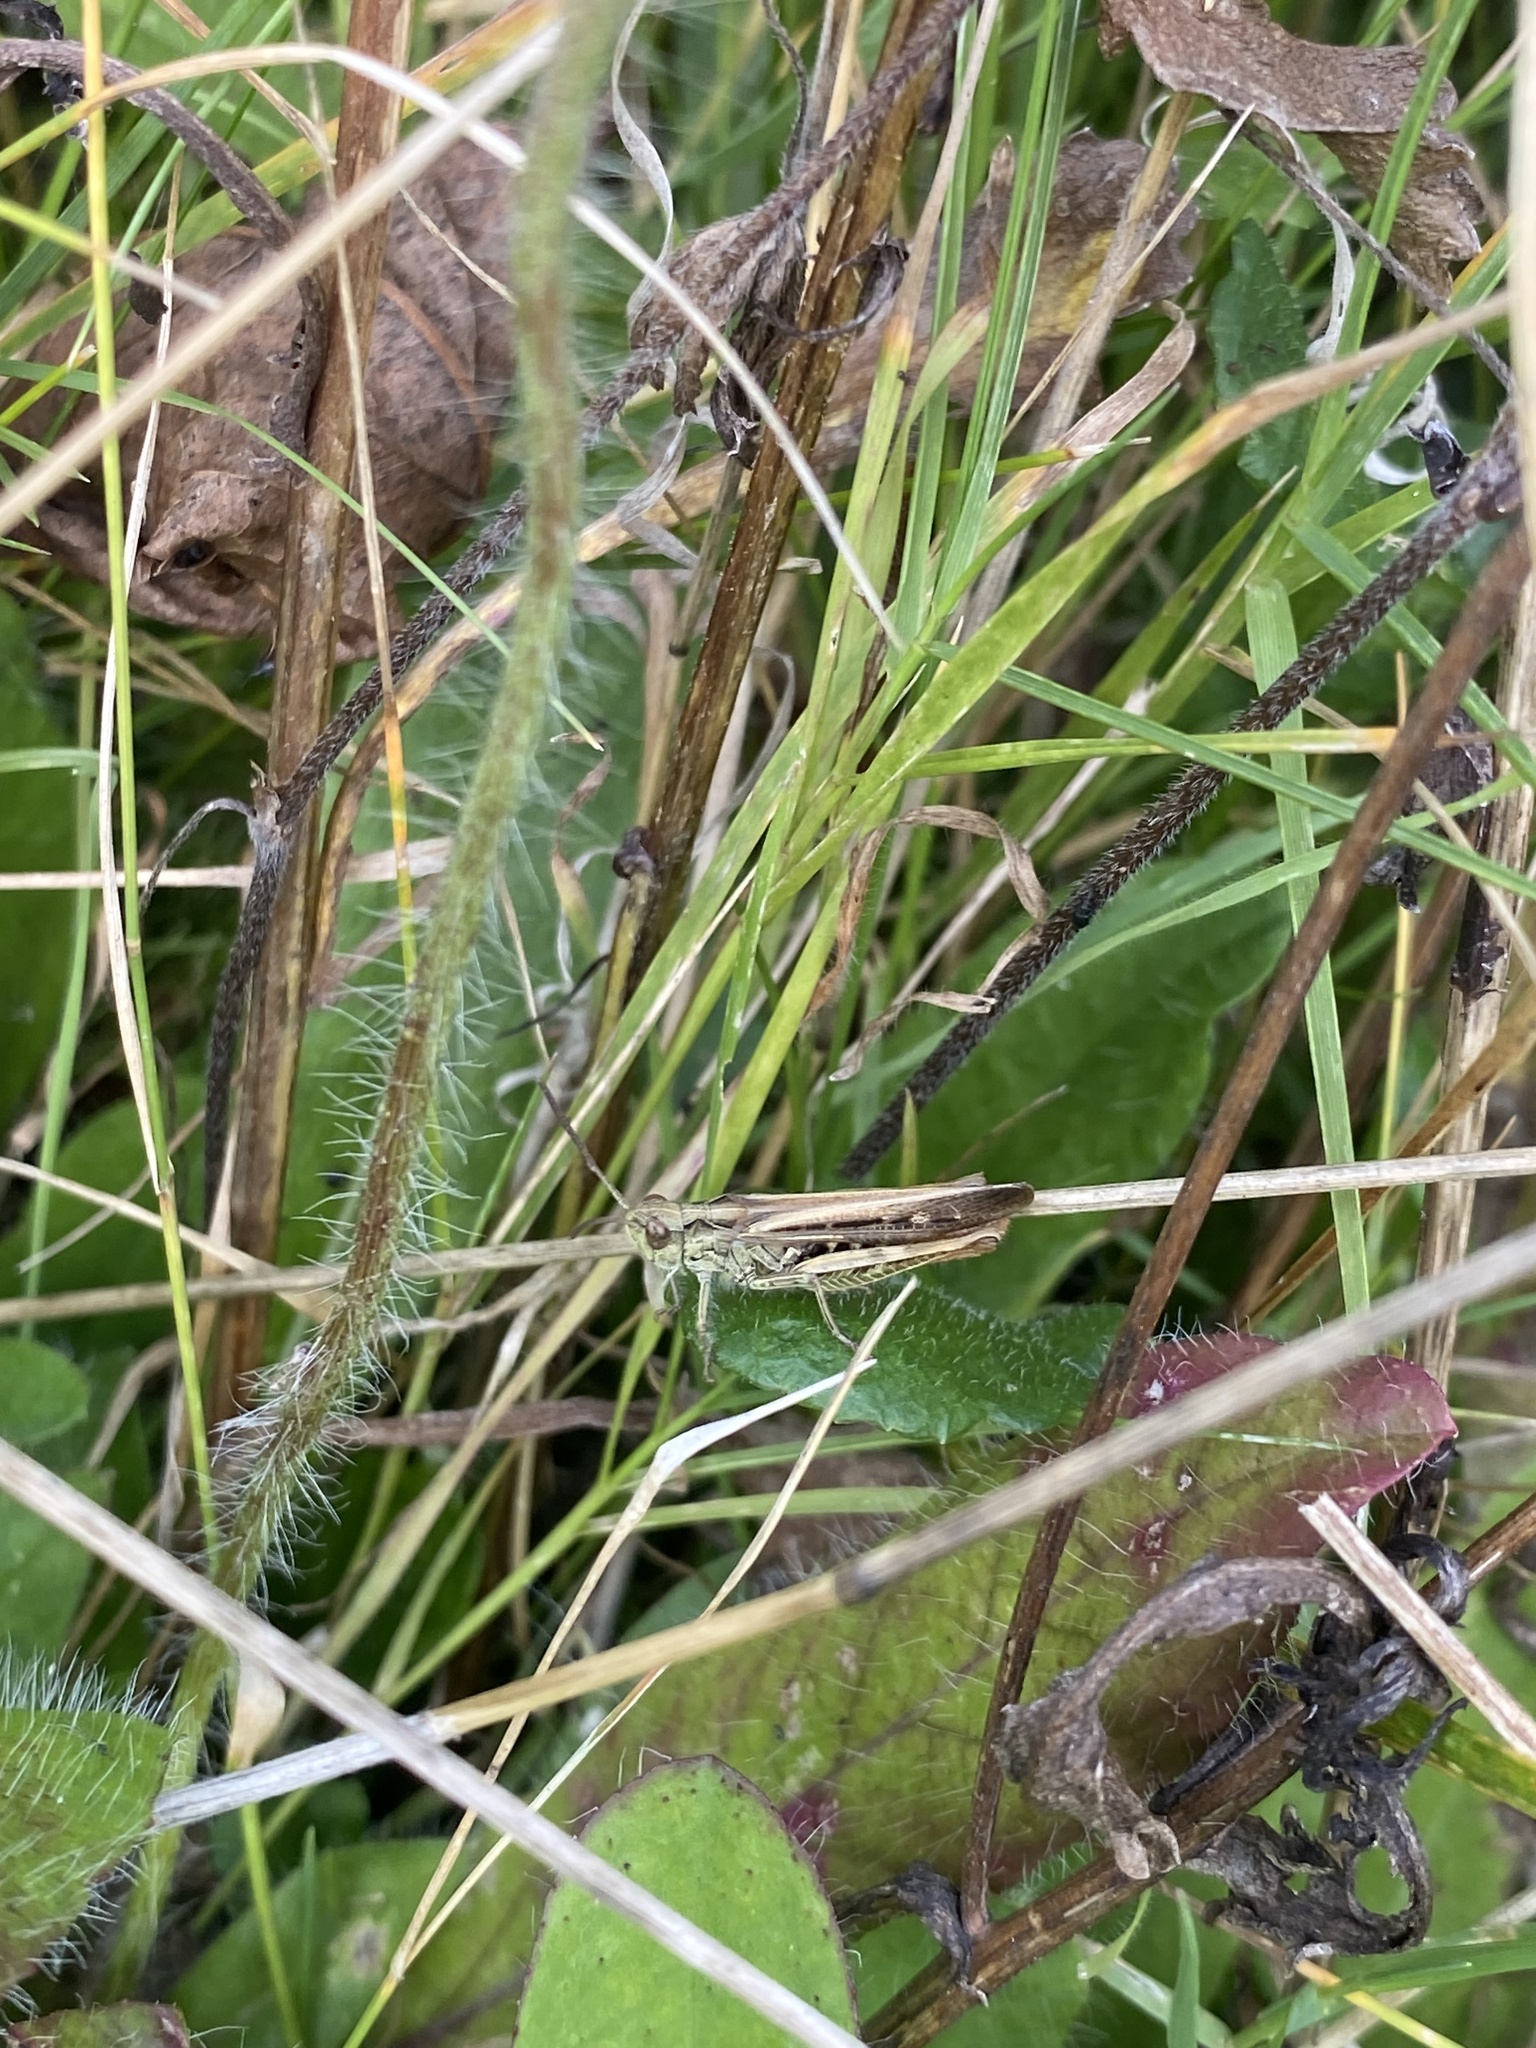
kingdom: Animalia
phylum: Arthropoda
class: Insecta
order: Orthoptera
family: Acrididae
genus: Chorthippus
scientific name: Chorthippus brunneus
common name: Field grasshopper
